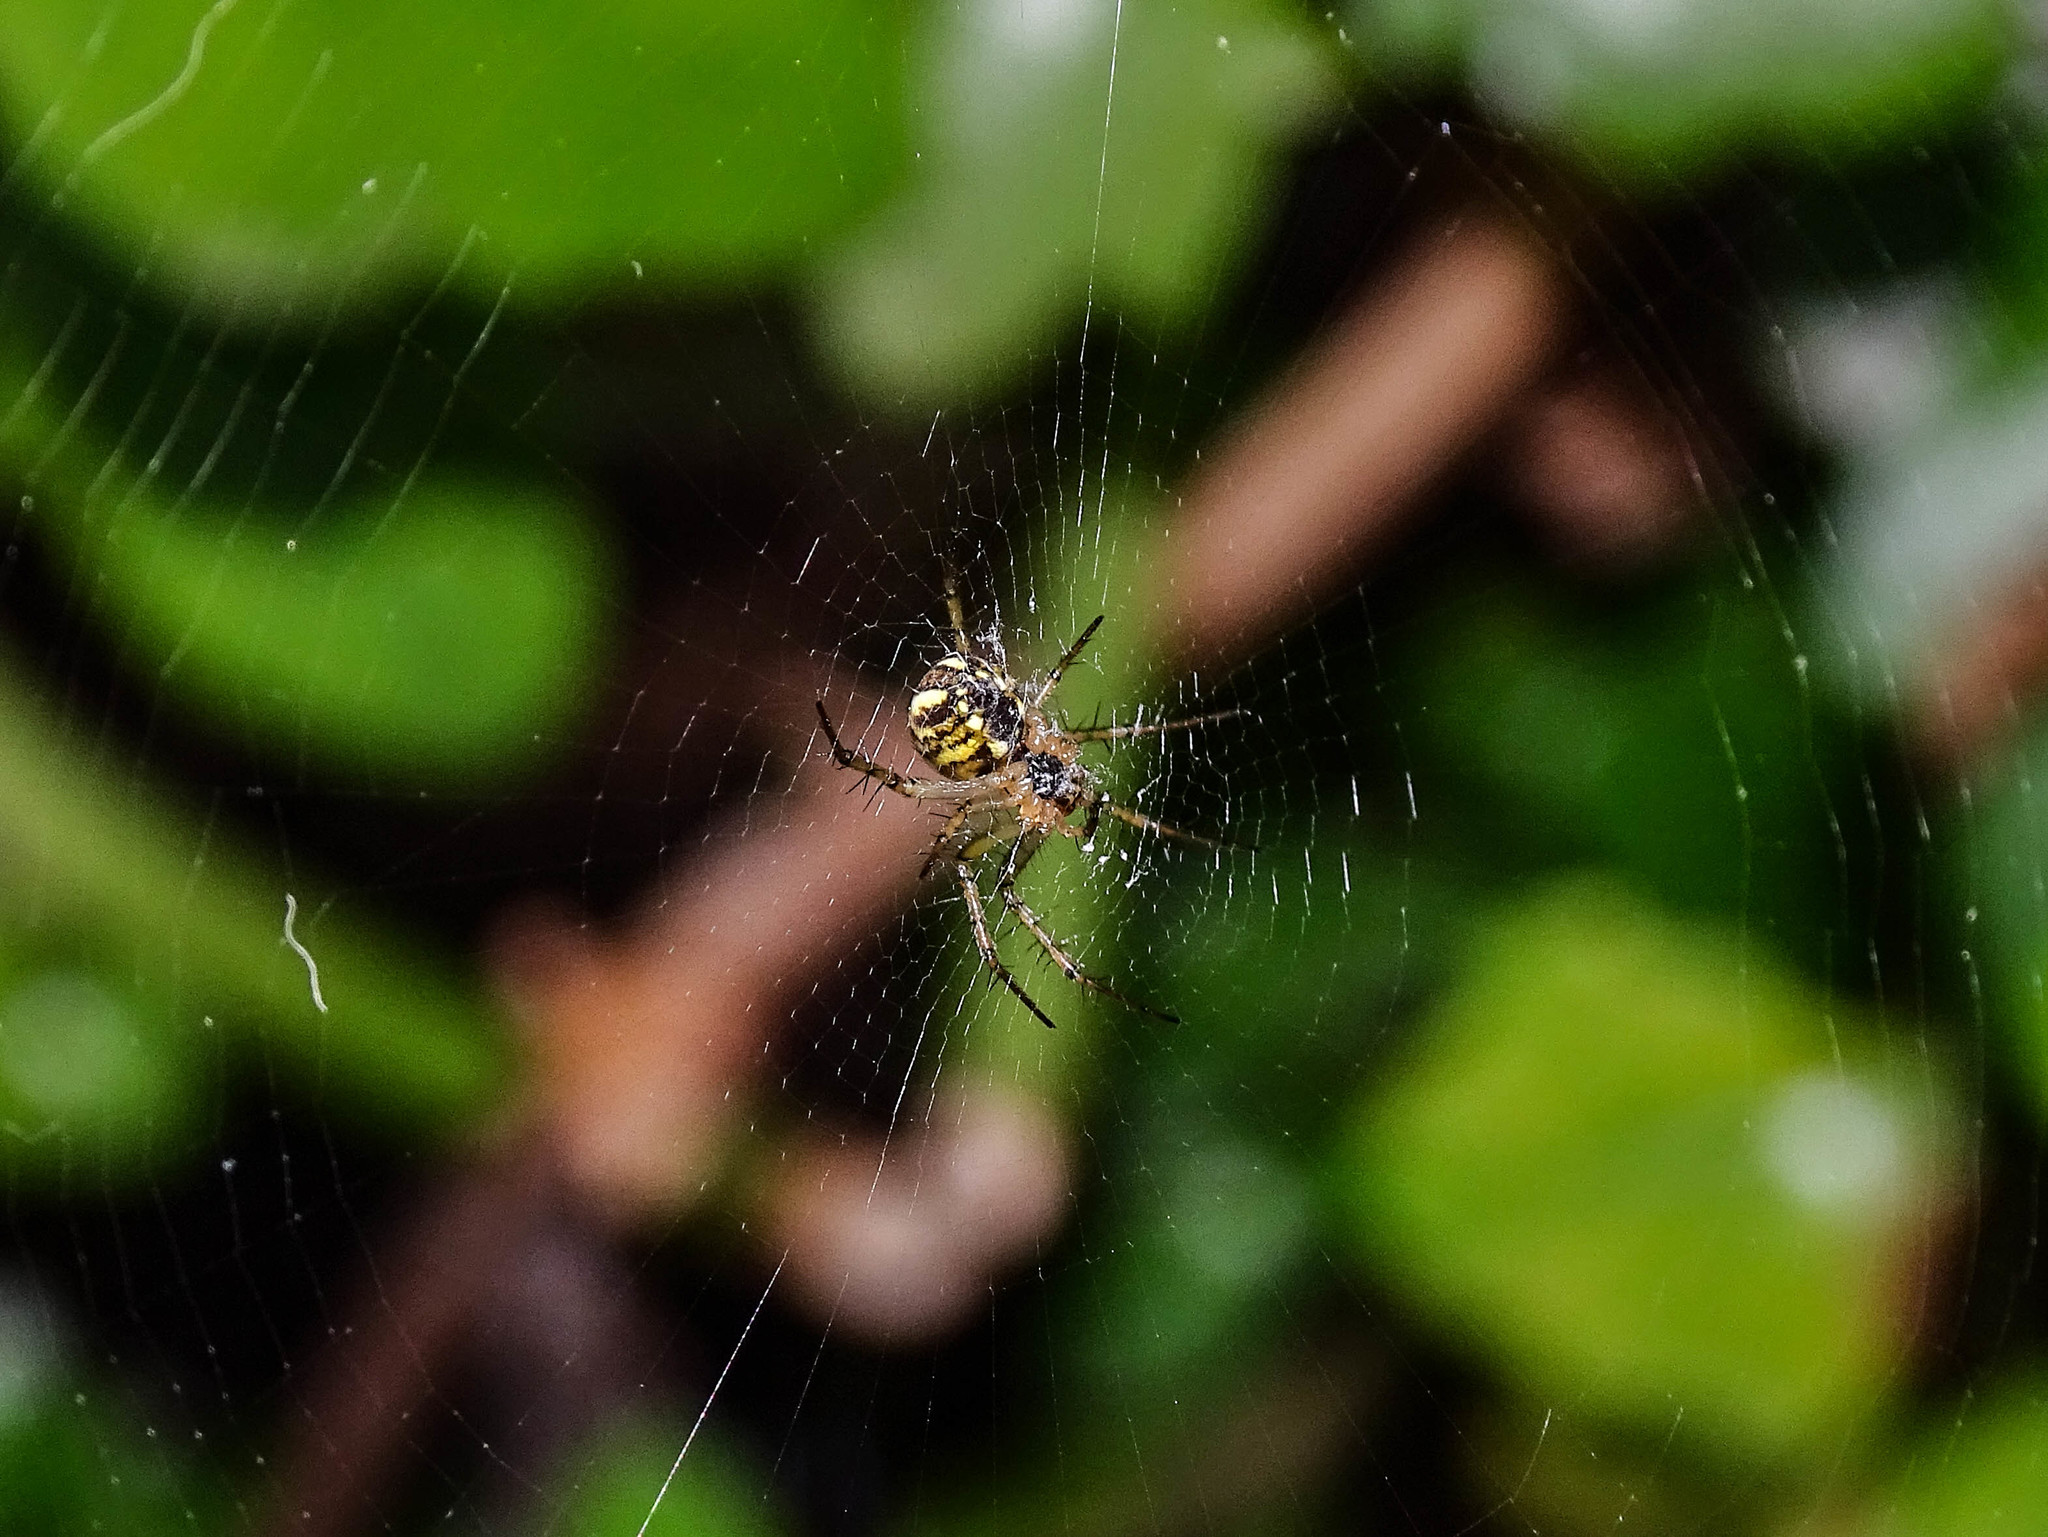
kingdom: Animalia
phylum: Arthropoda
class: Arachnida
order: Araneae
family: Araneidae
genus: Mangora
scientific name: Mangora acalypha
